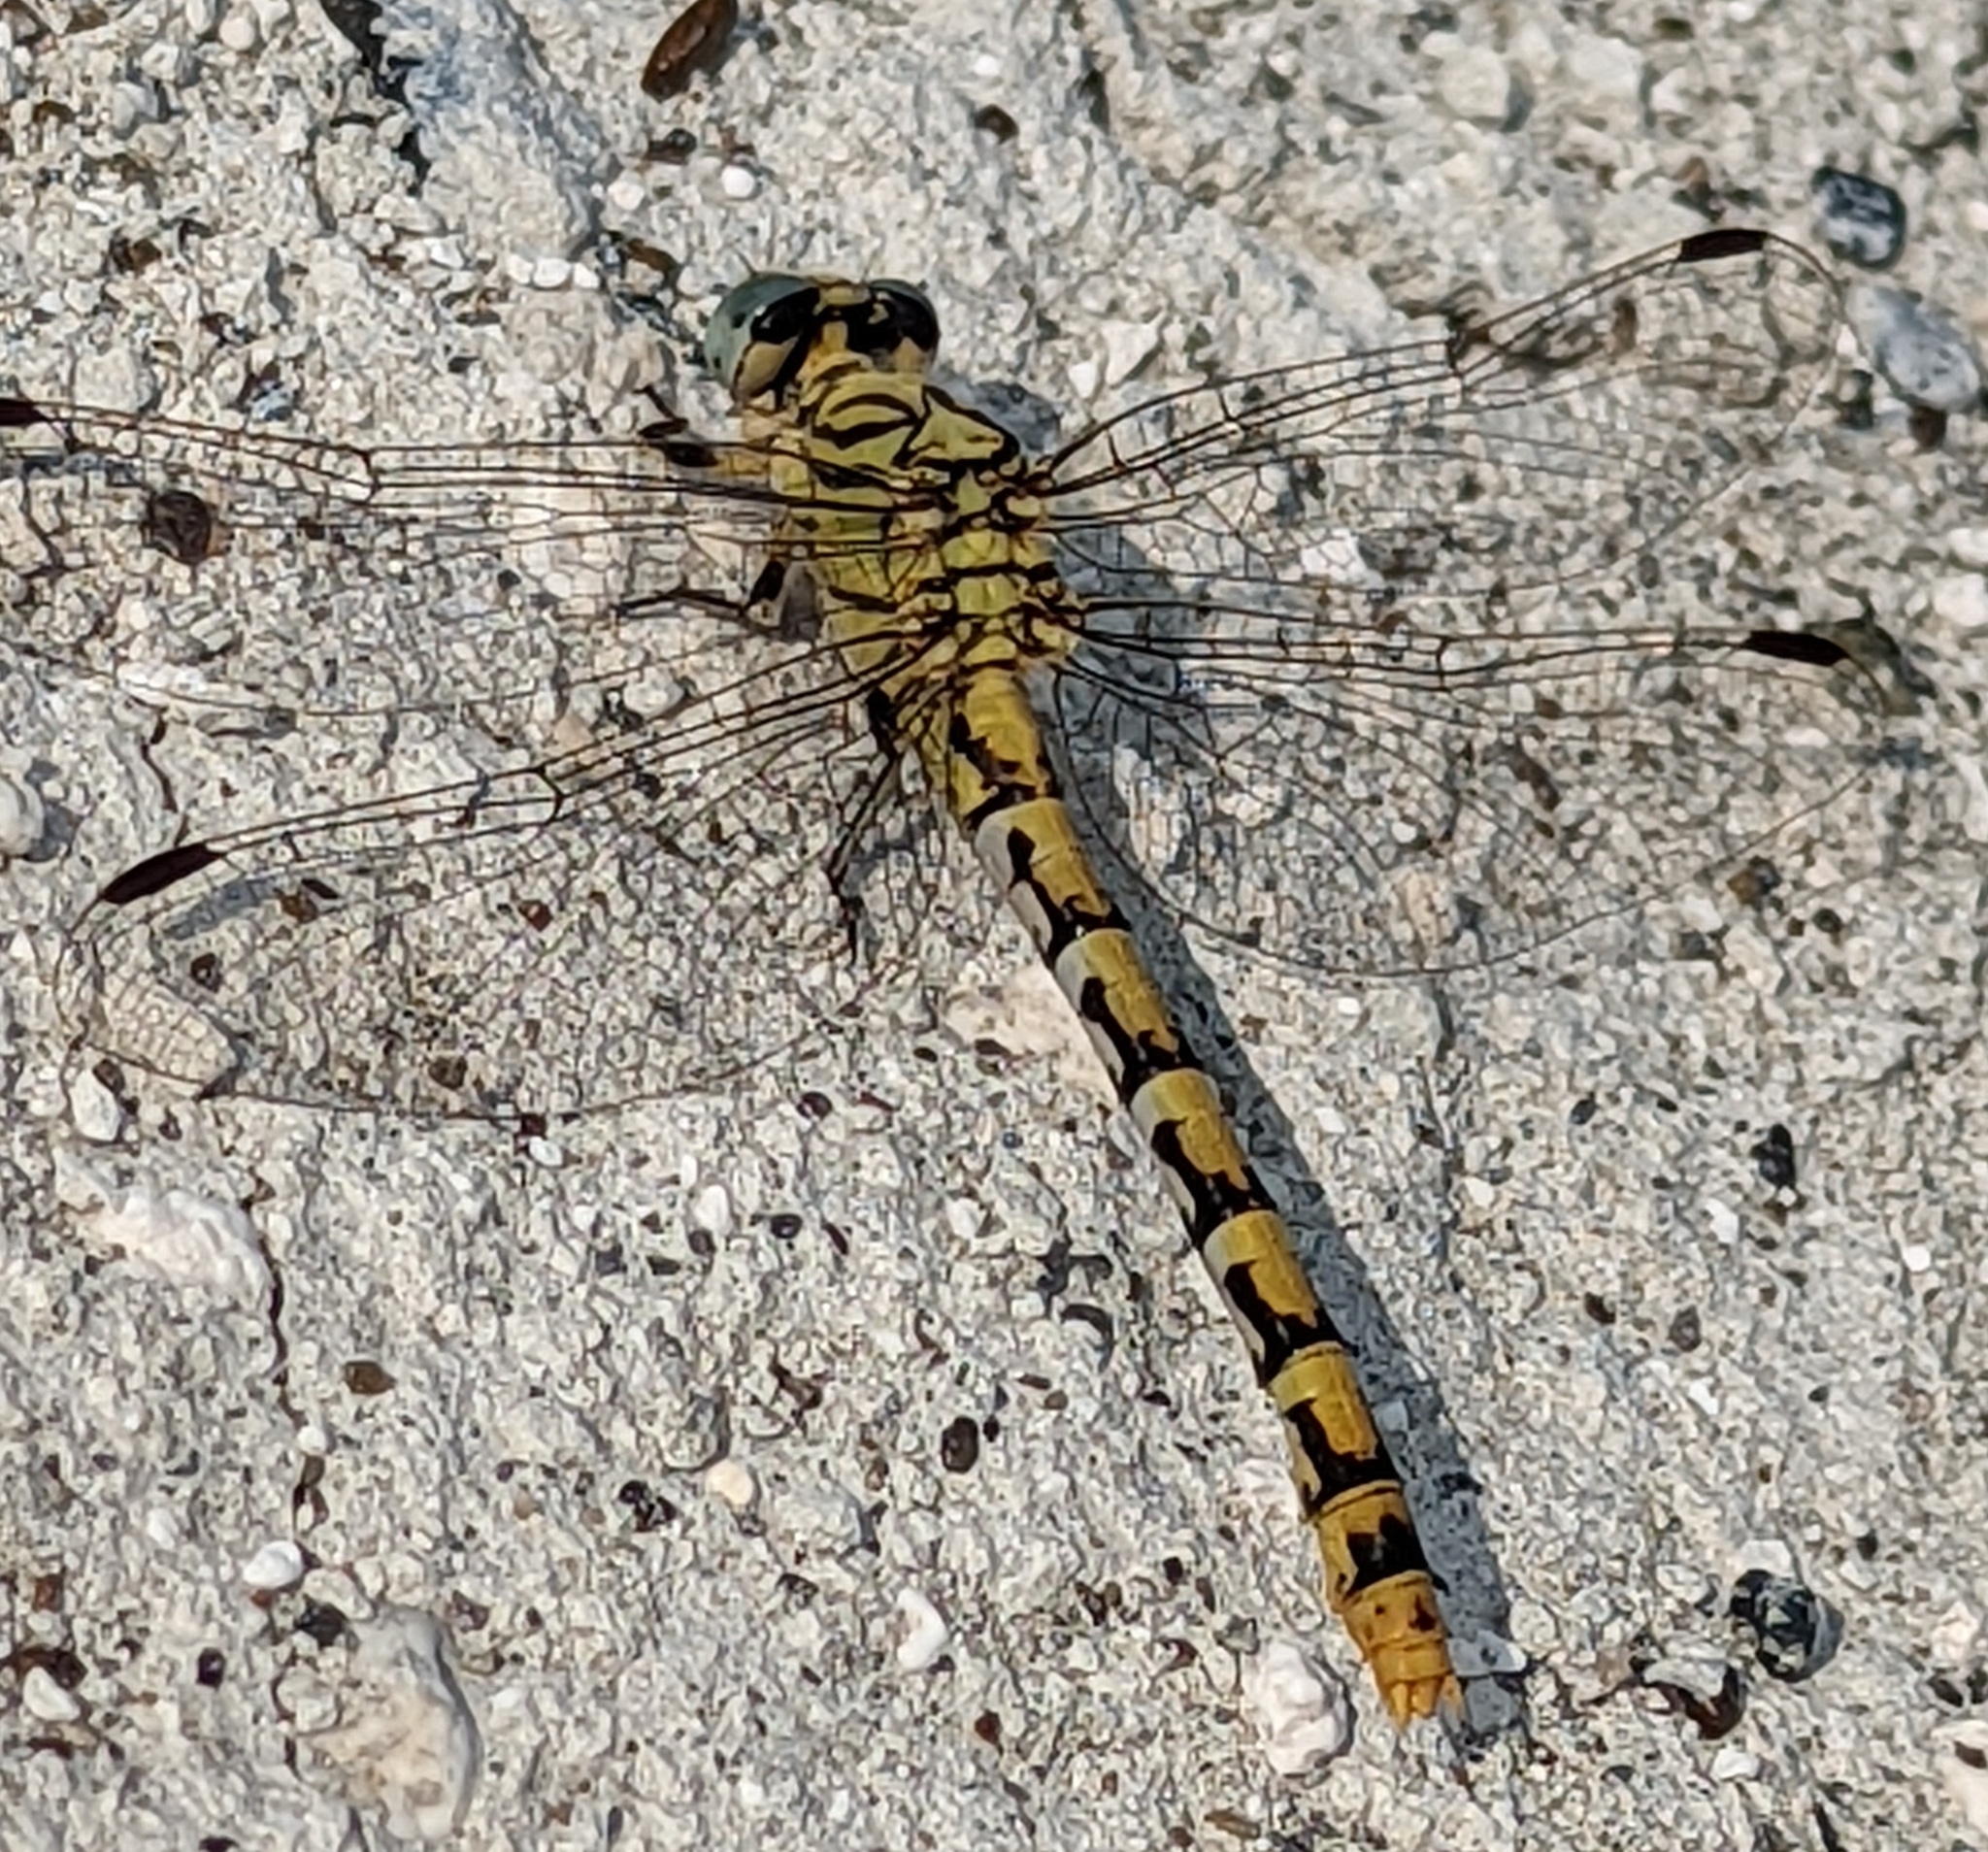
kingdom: Animalia
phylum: Arthropoda
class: Insecta
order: Odonata
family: Gomphidae
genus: Onychogomphus
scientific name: Onychogomphus forcipatus
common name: Small pincertail
